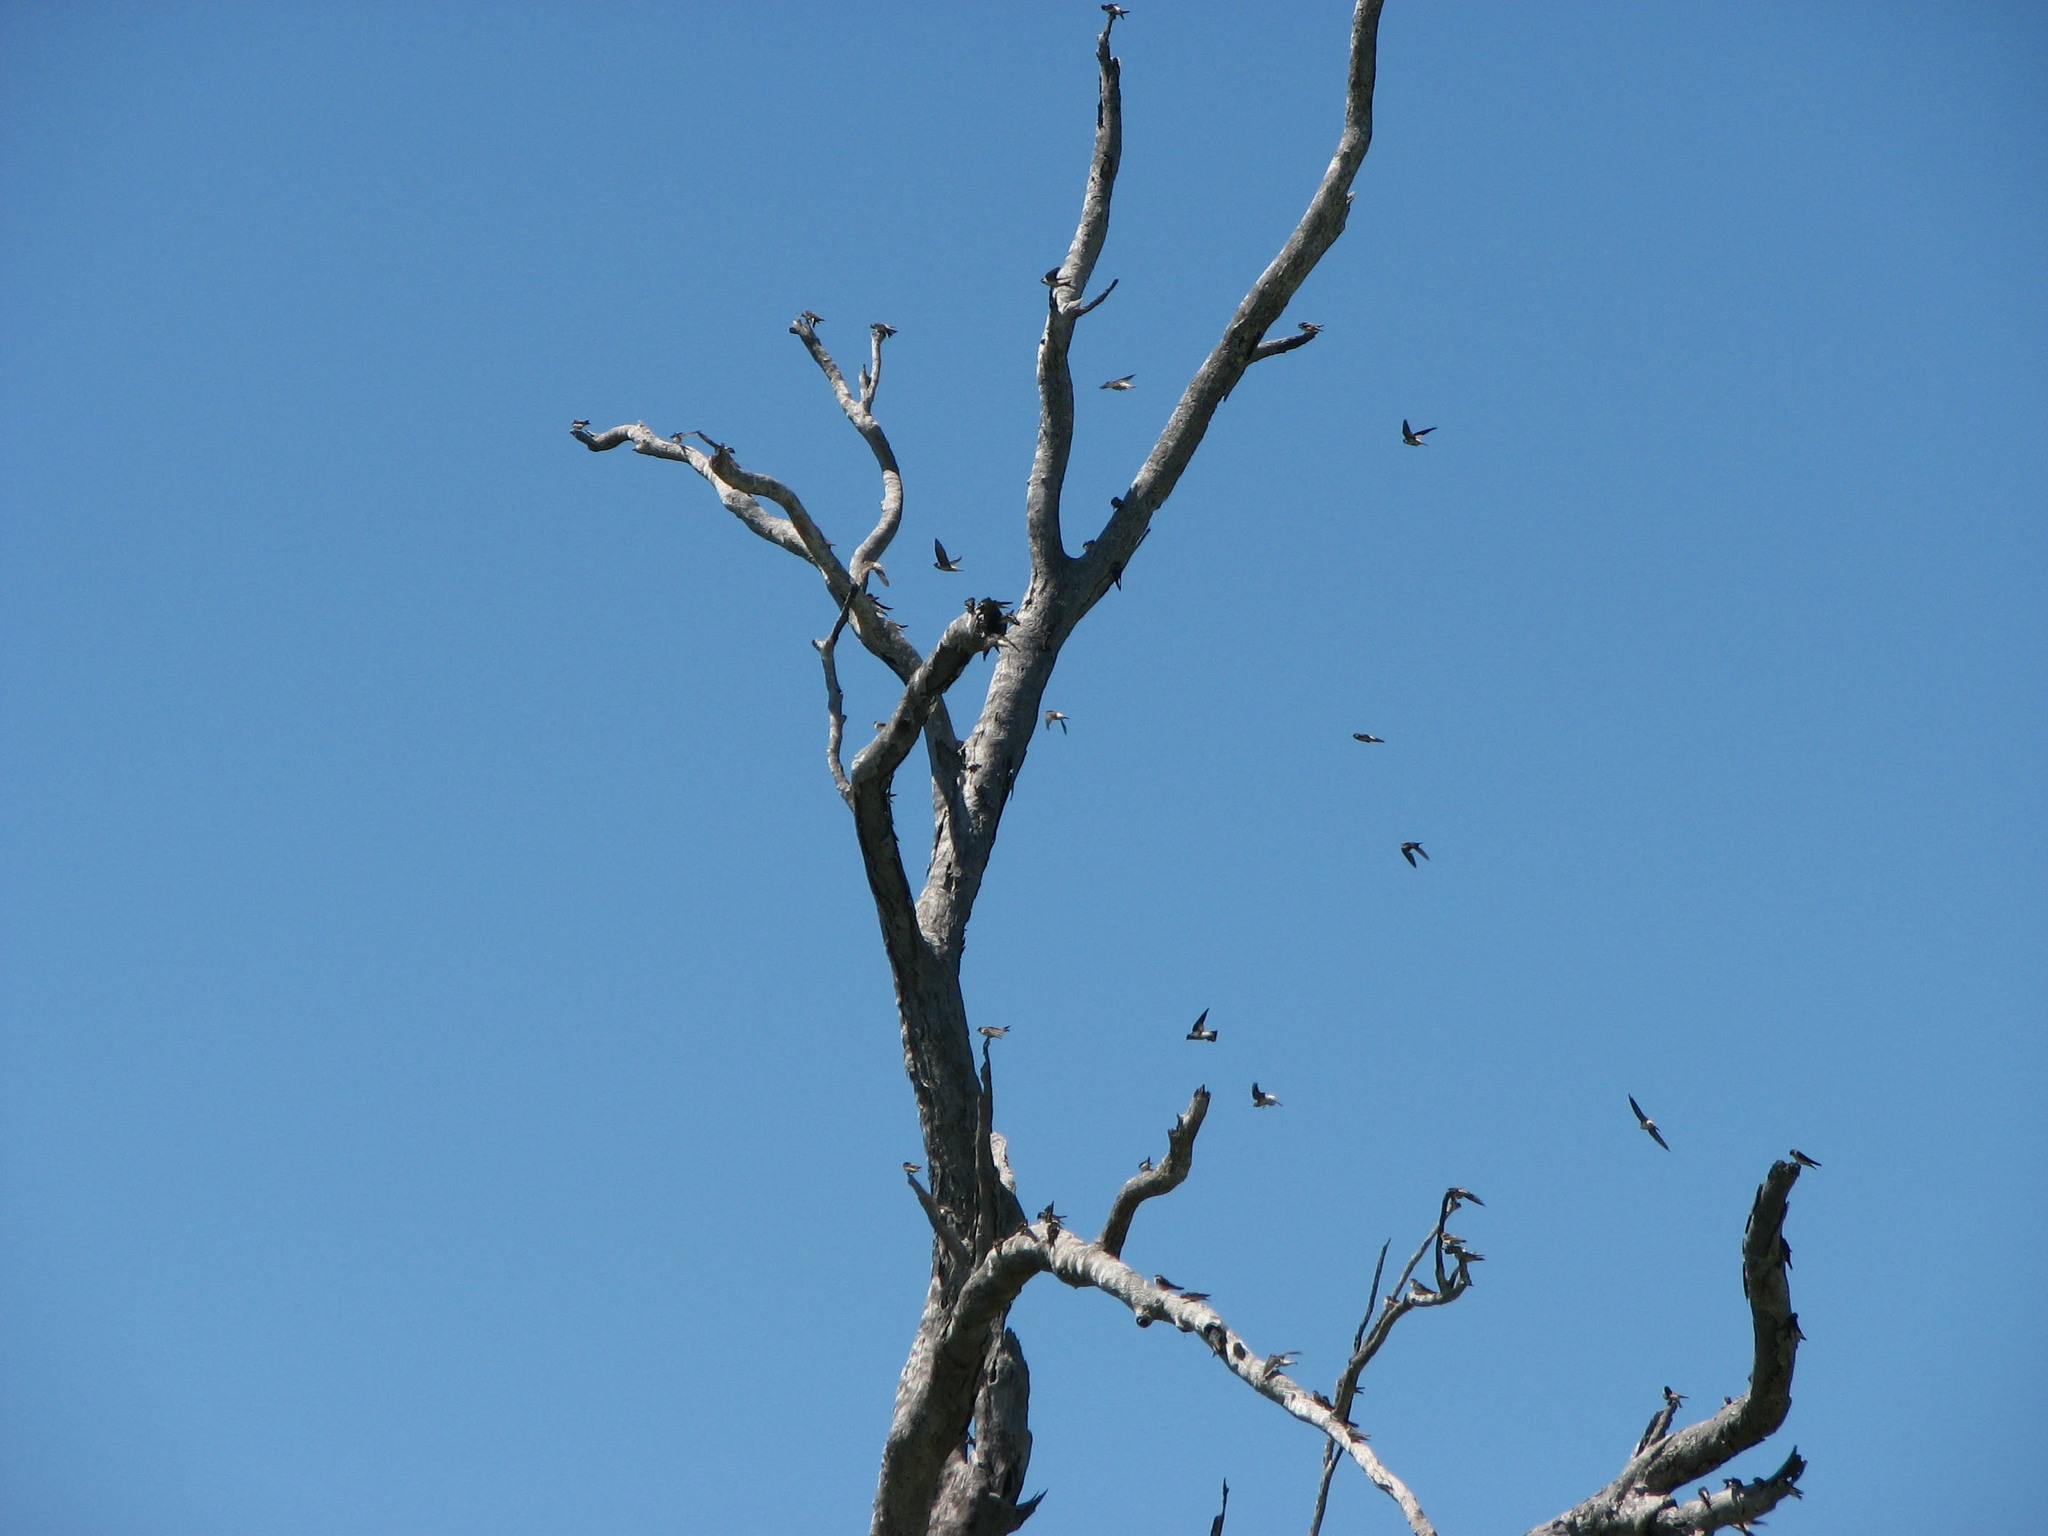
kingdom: Animalia
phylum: Chordata
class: Aves
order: Passeriformes
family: Hirundinidae
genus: Petrochelidon
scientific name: Petrochelidon nigricans
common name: Tree martin
